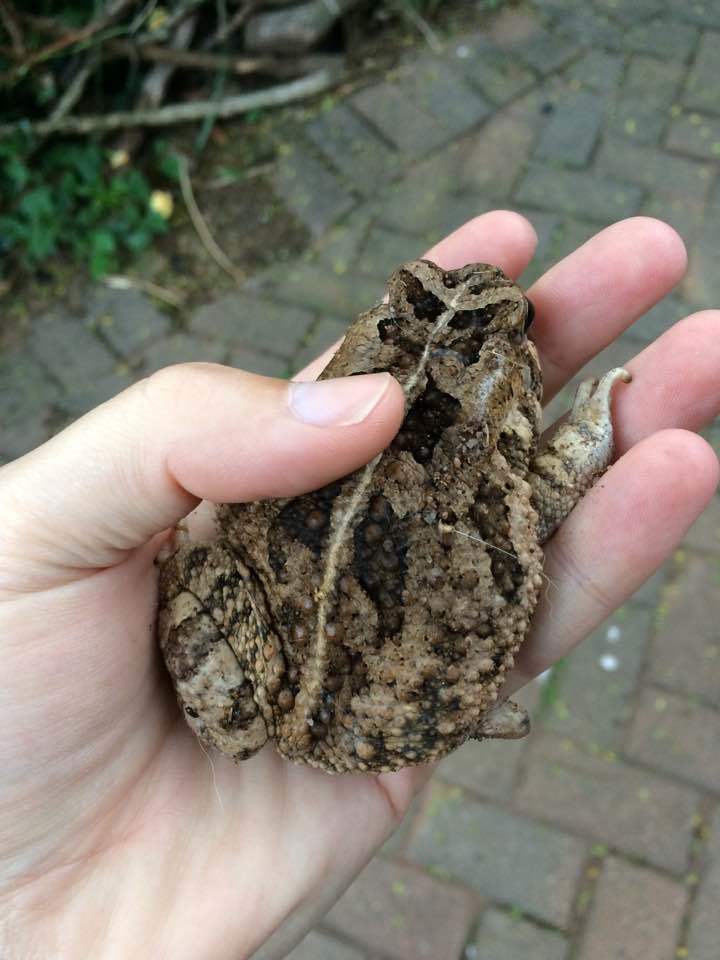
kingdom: Animalia
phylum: Chordata
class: Amphibia
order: Anura
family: Bufonidae
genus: Sclerophrys
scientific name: Sclerophrys gutturalis
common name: African common toad
